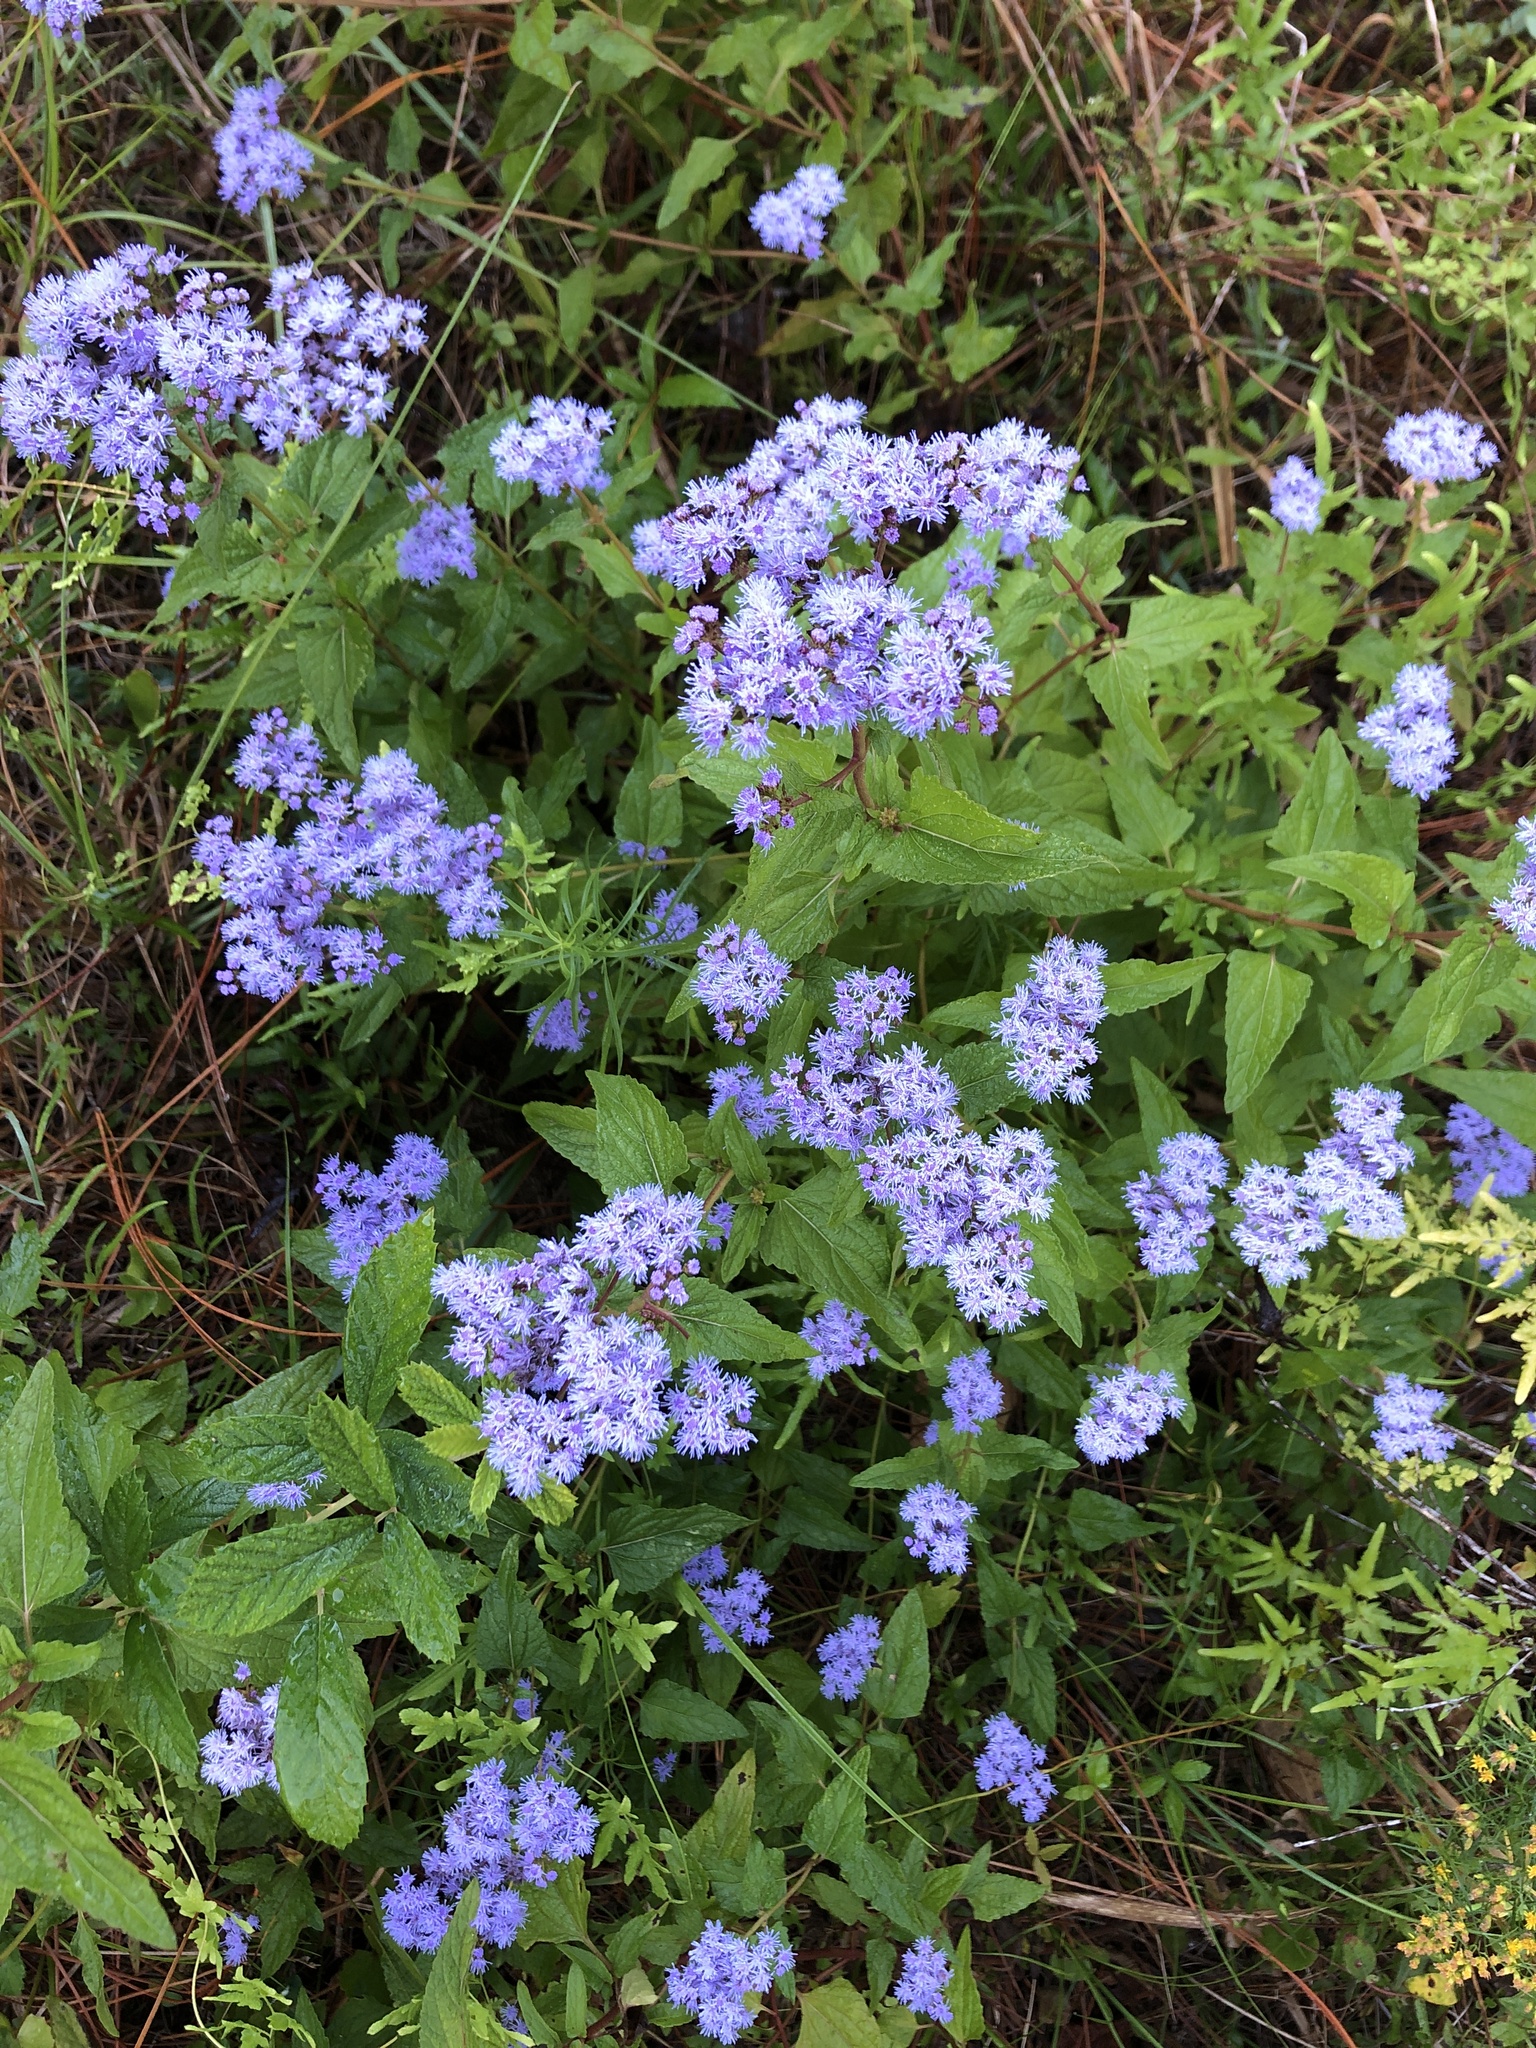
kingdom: Plantae
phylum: Tracheophyta
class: Magnoliopsida
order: Asterales
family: Asteraceae
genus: Conoclinium
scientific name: Conoclinium coelestinum
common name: Blue mistflower
